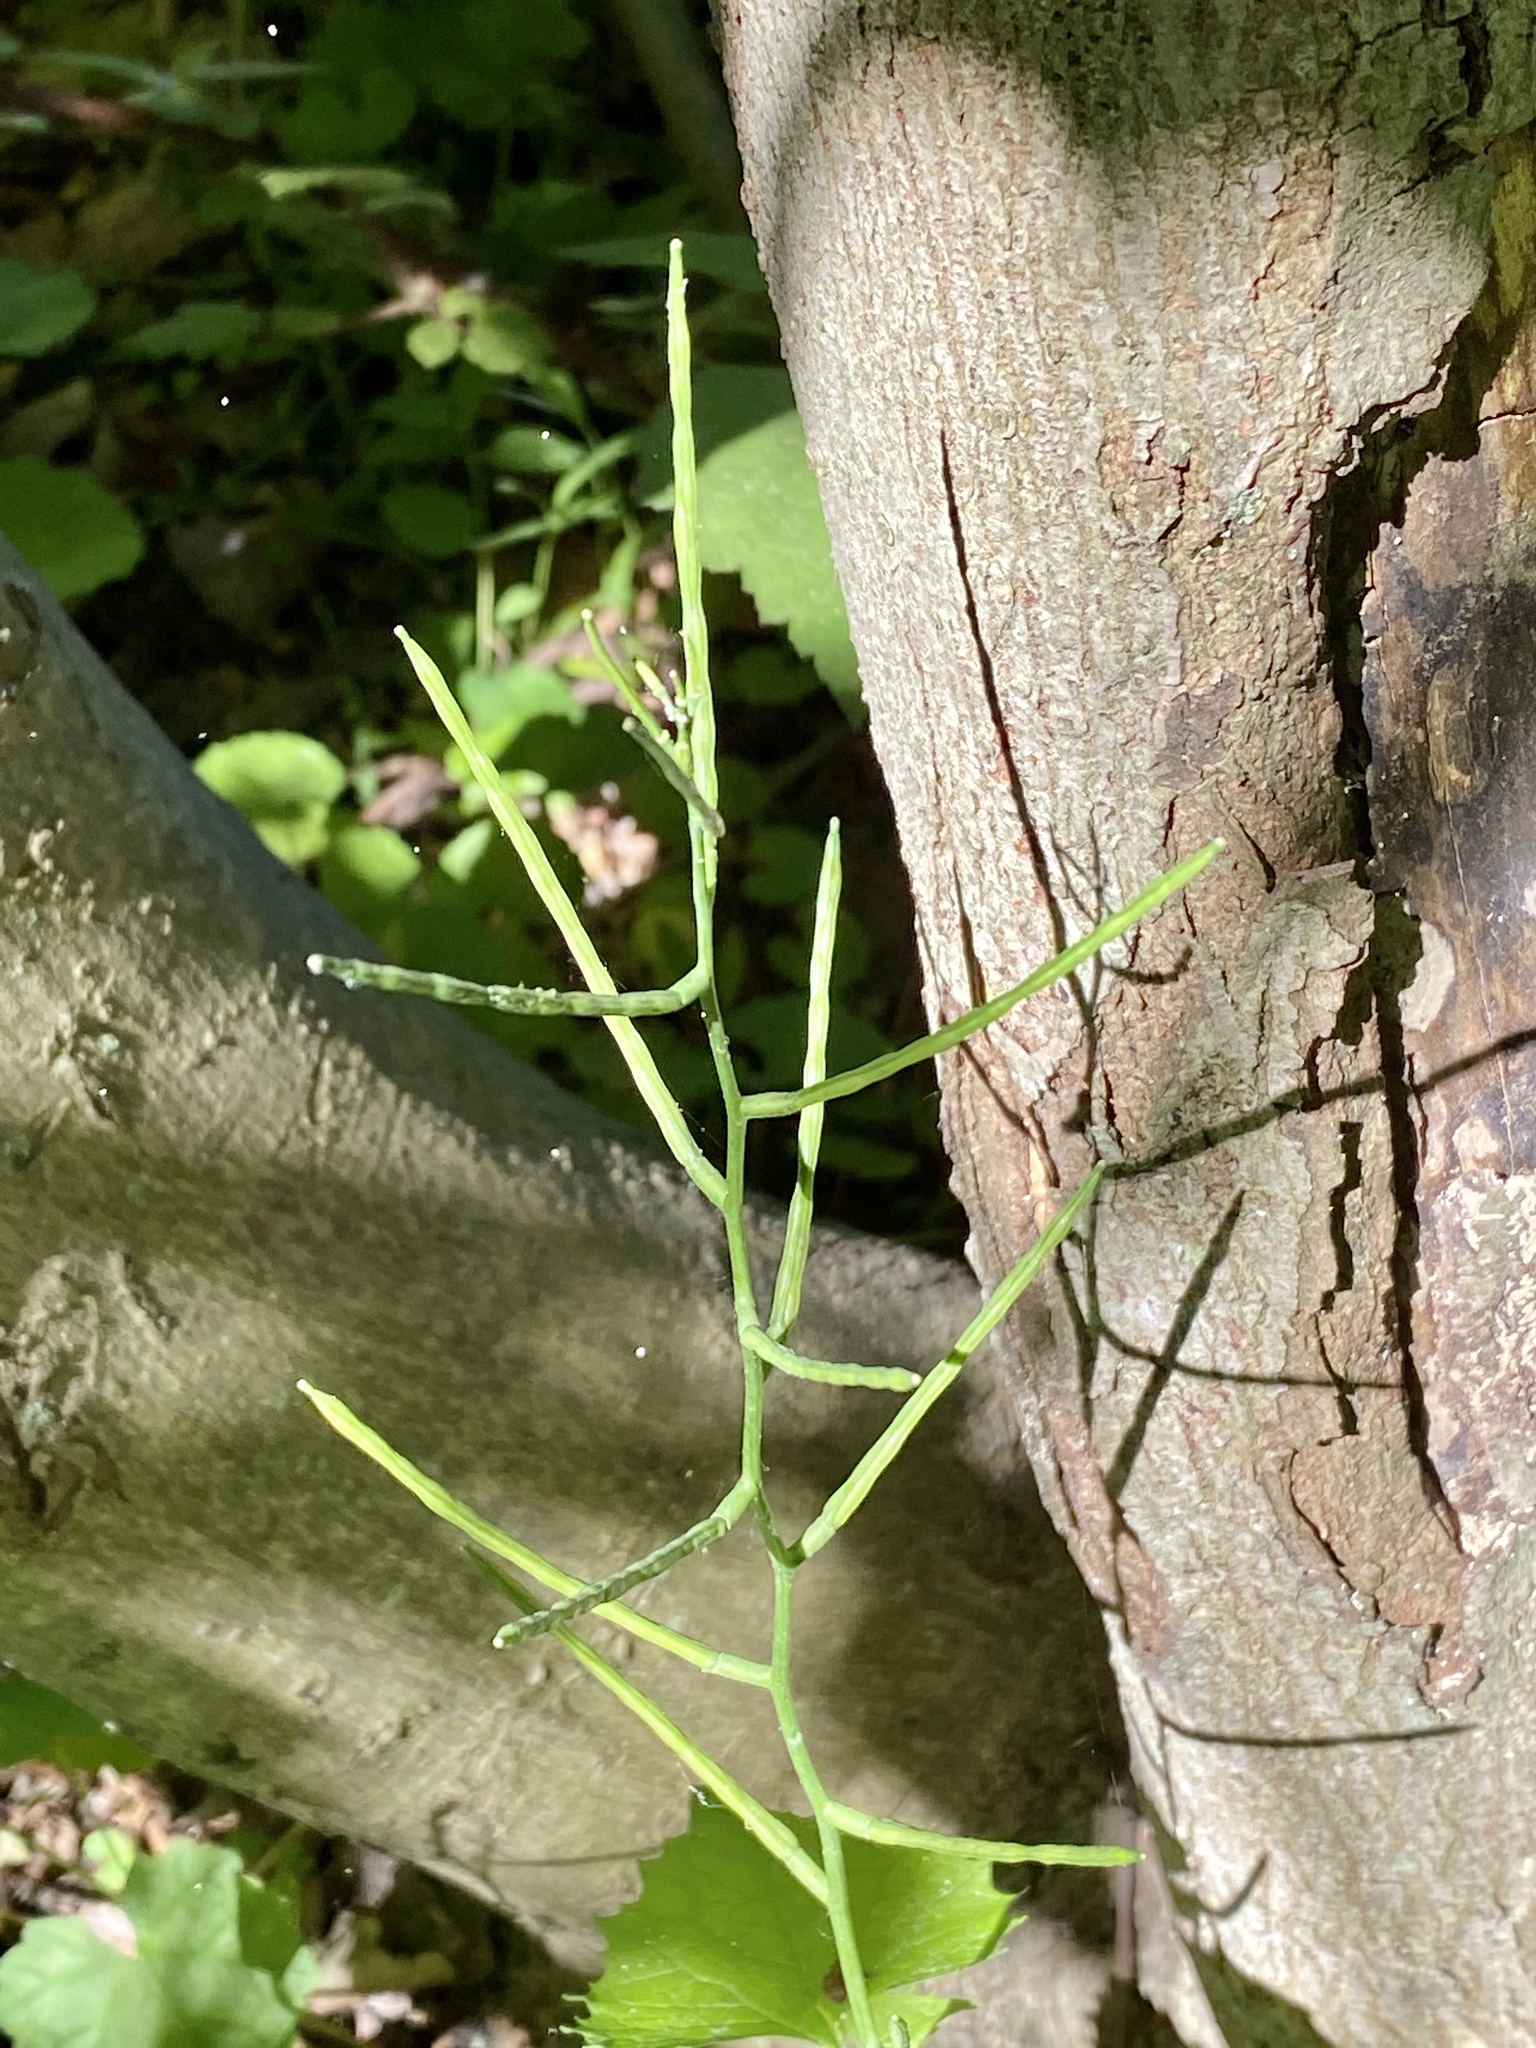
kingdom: Plantae
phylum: Tracheophyta
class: Magnoliopsida
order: Brassicales
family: Brassicaceae
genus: Alliaria
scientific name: Alliaria petiolata
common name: Garlic mustard
